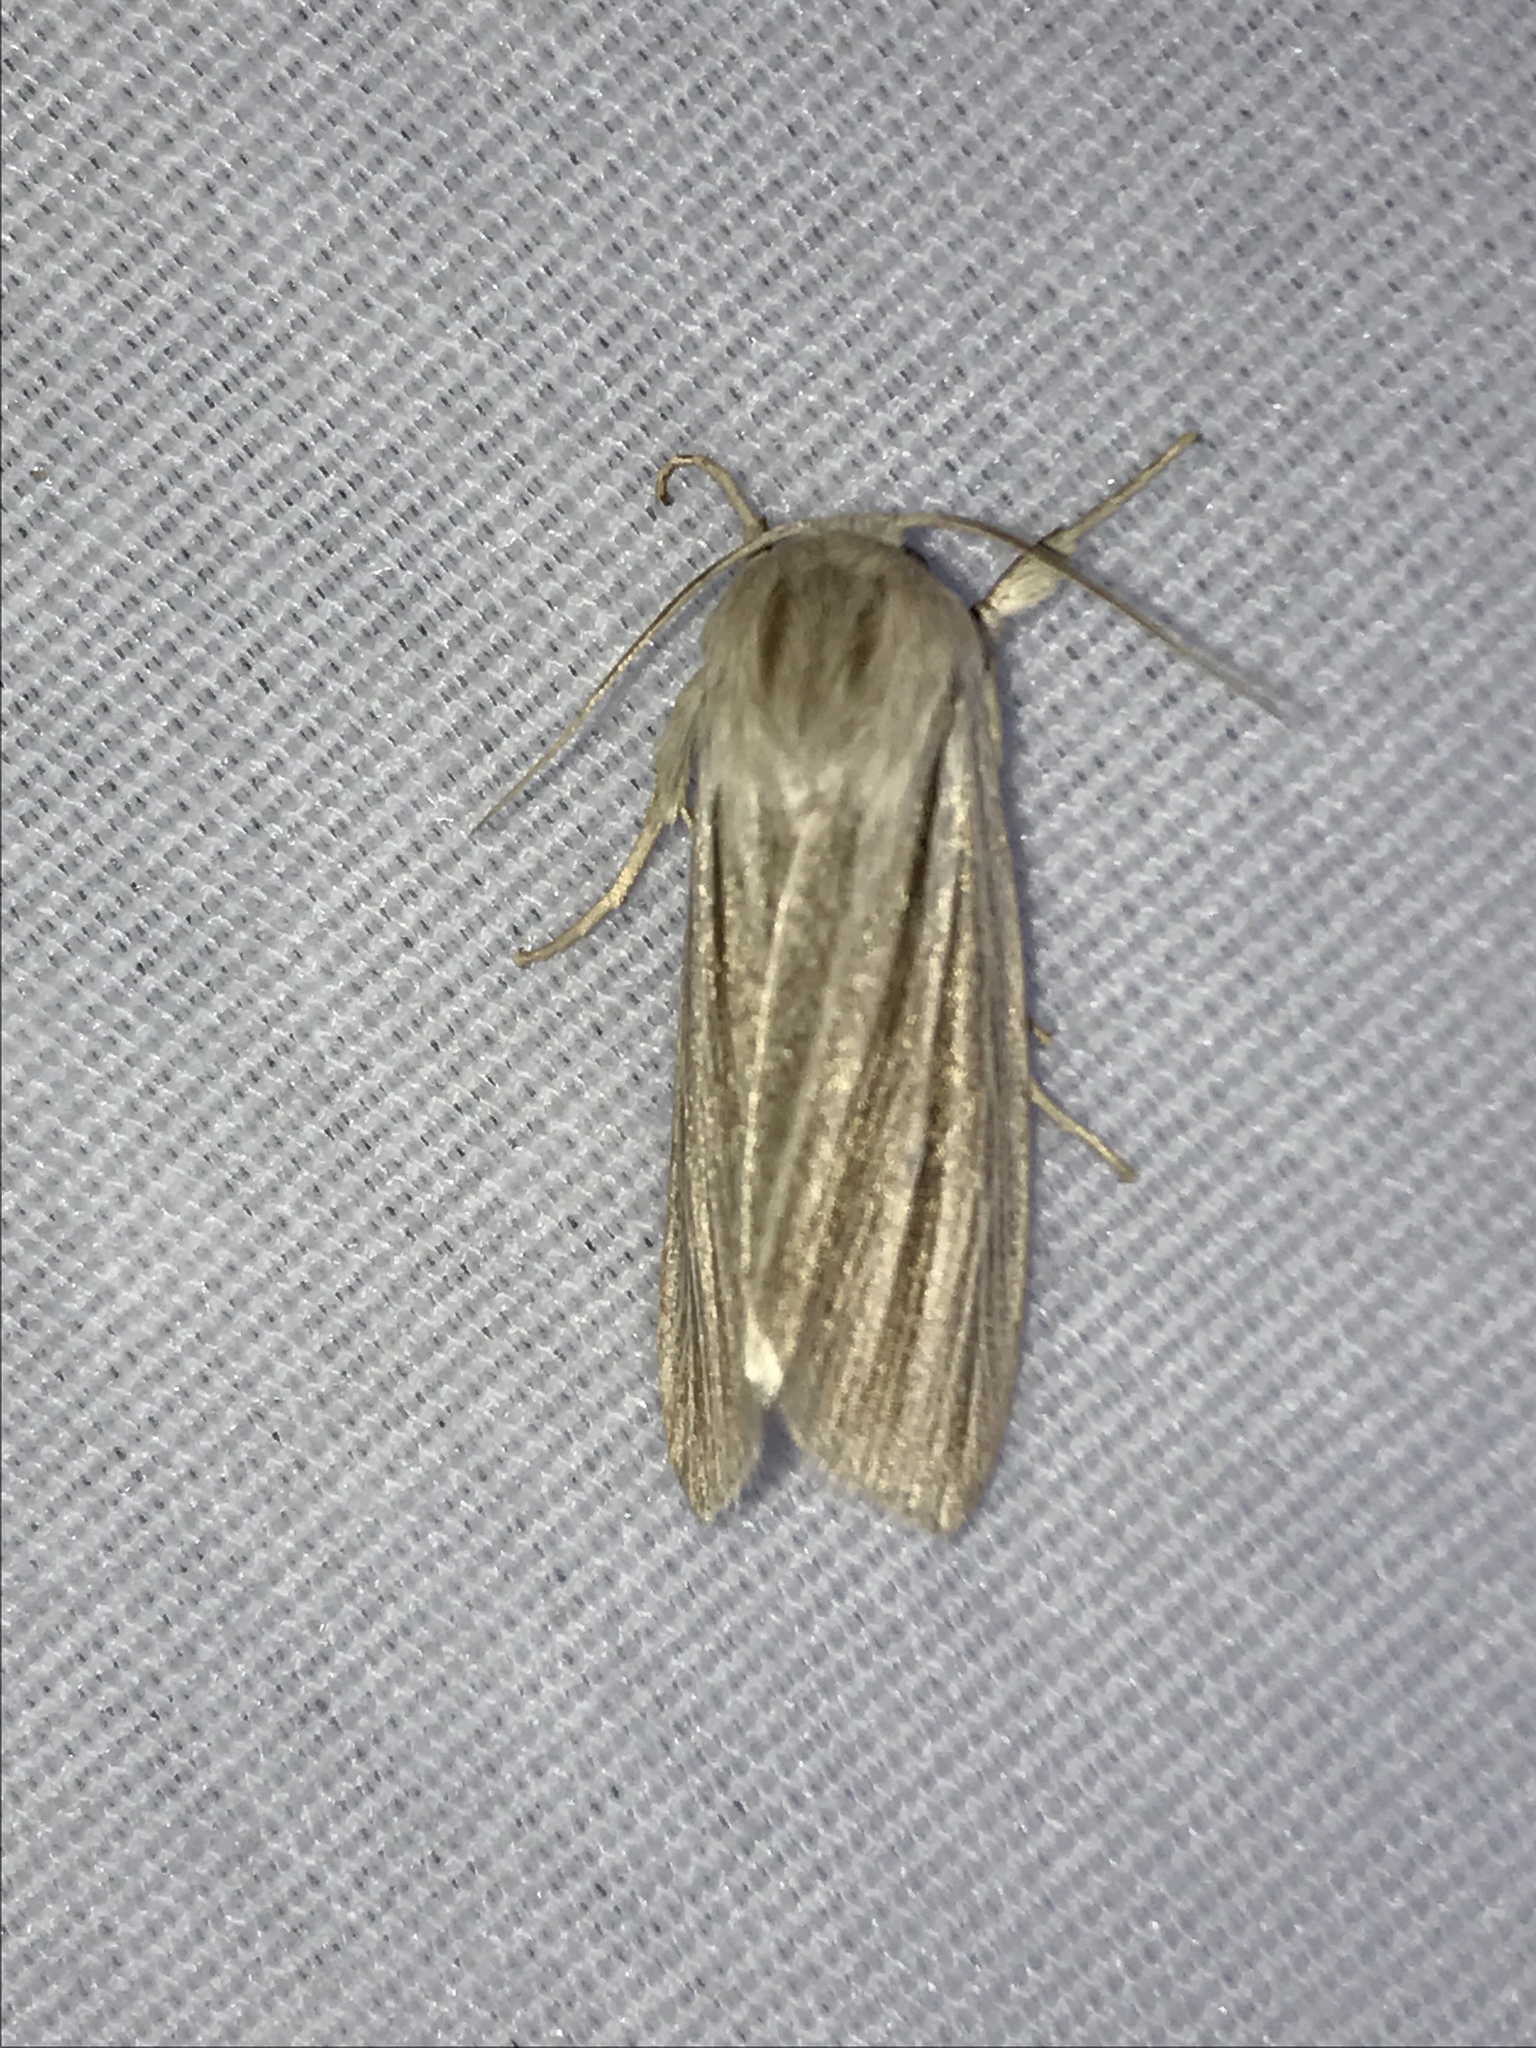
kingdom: Animalia
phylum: Arthropoda
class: Insecta
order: Lepidoptera
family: Noctuidae
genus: Acronicta
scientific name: Acronicta insularis
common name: Henry's marsh moth
